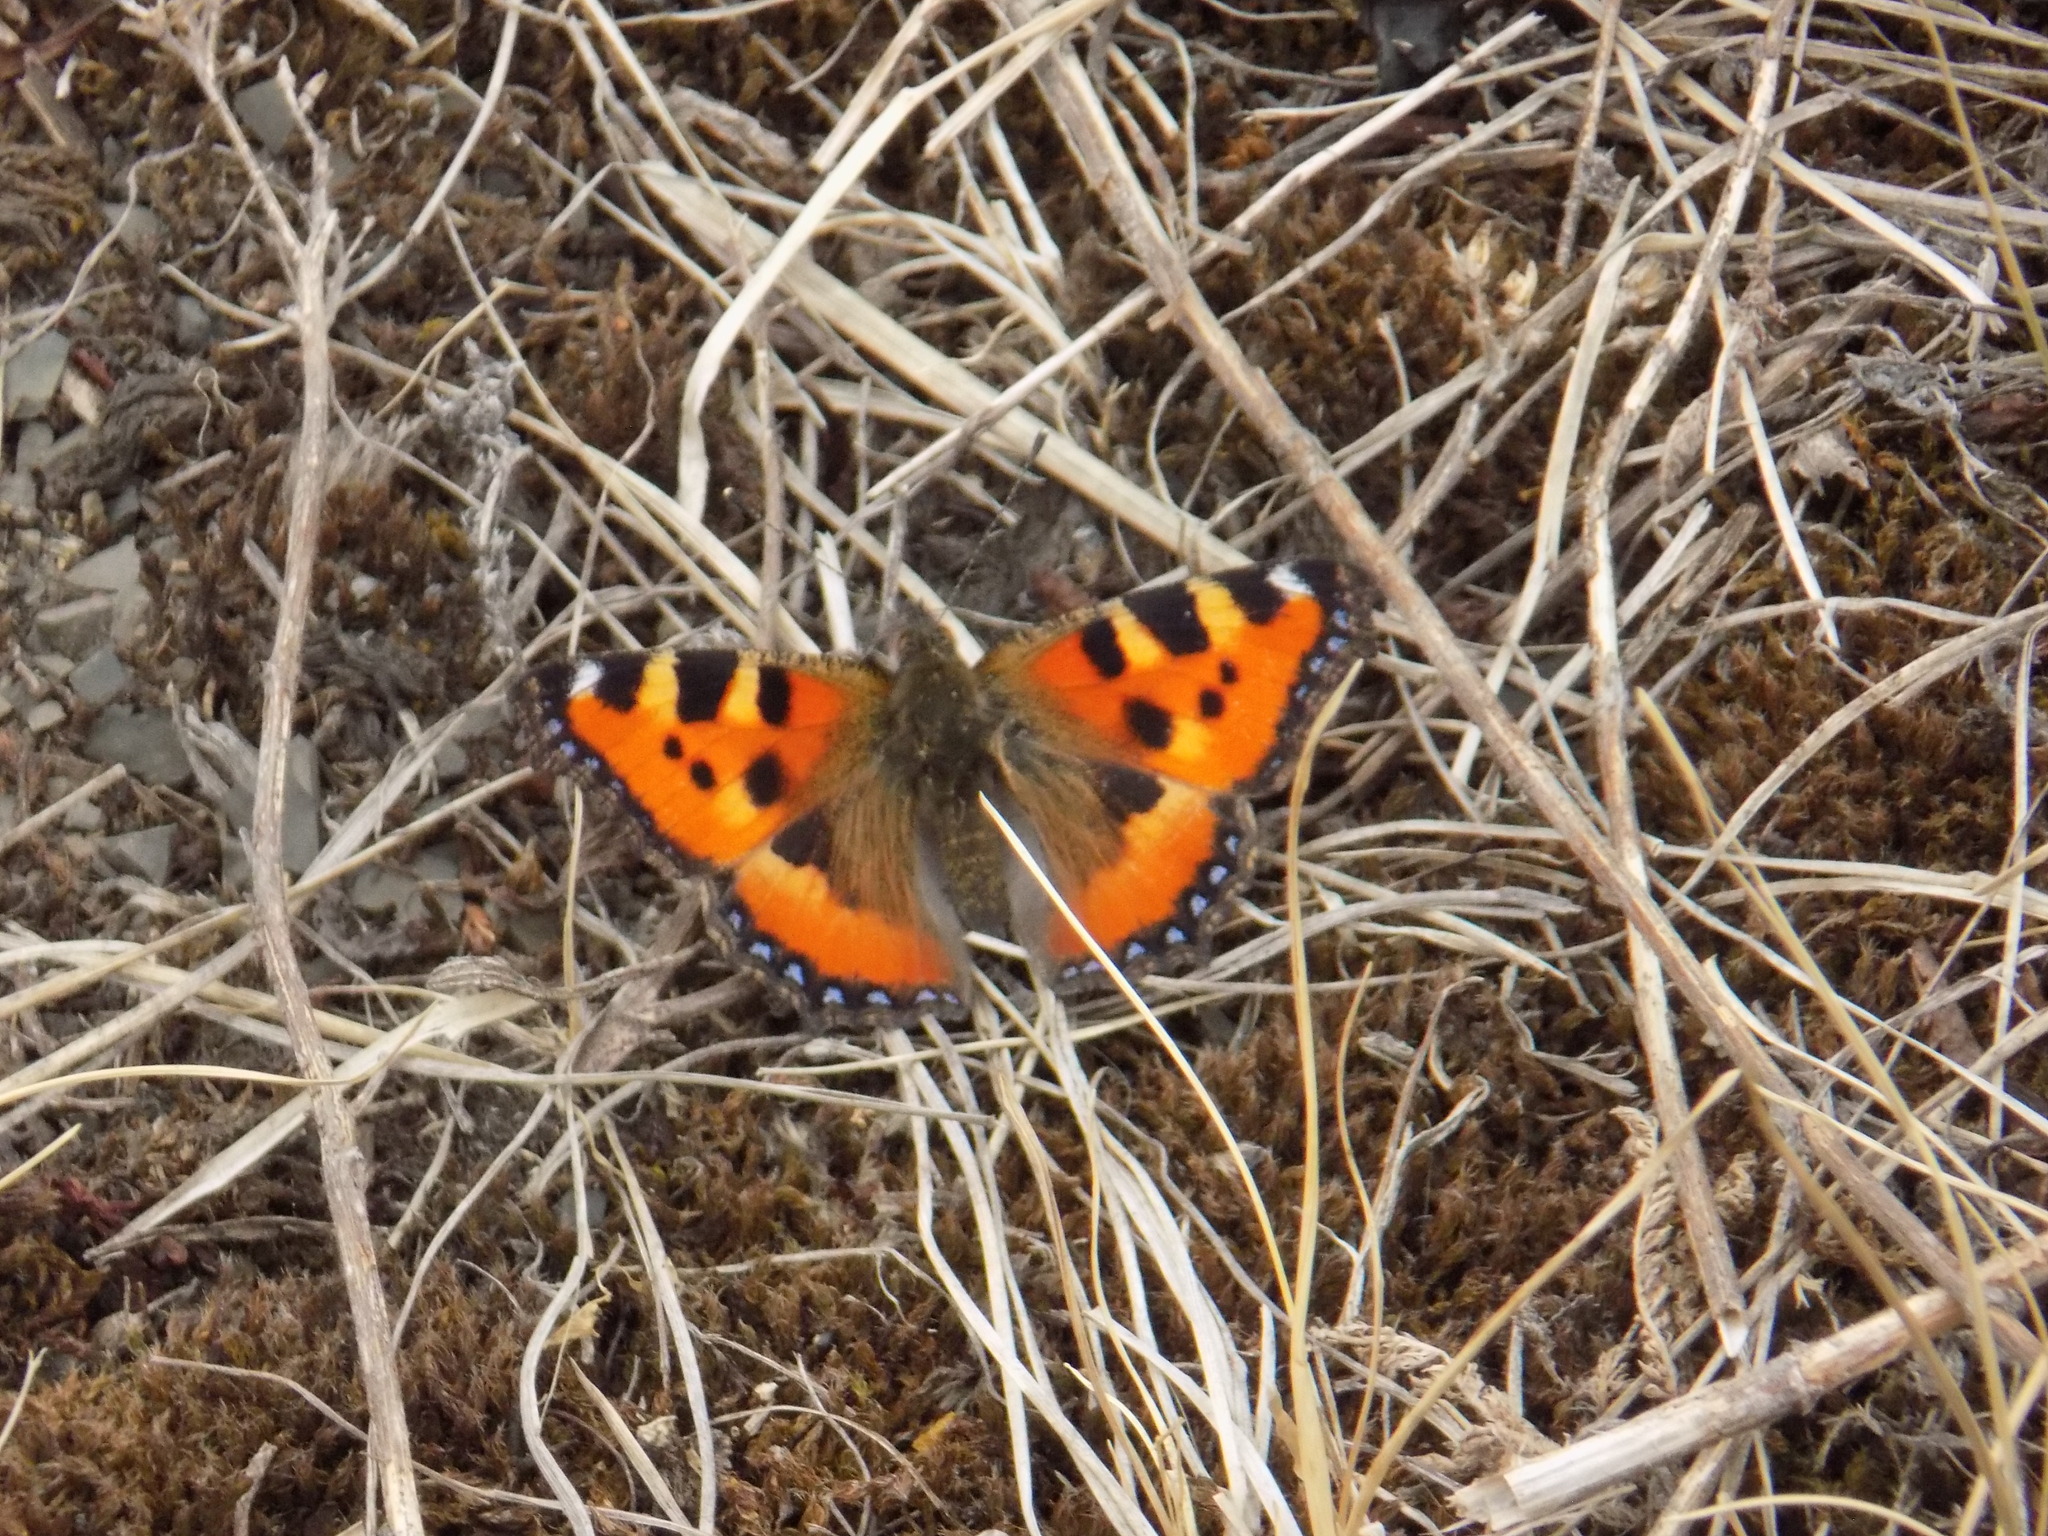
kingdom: Animalia
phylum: Arthropoda
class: Insecta
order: Lepidoptera
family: Nymphalidae
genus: Aglais
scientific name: Aglais urticae
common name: Small tortoiseshell
